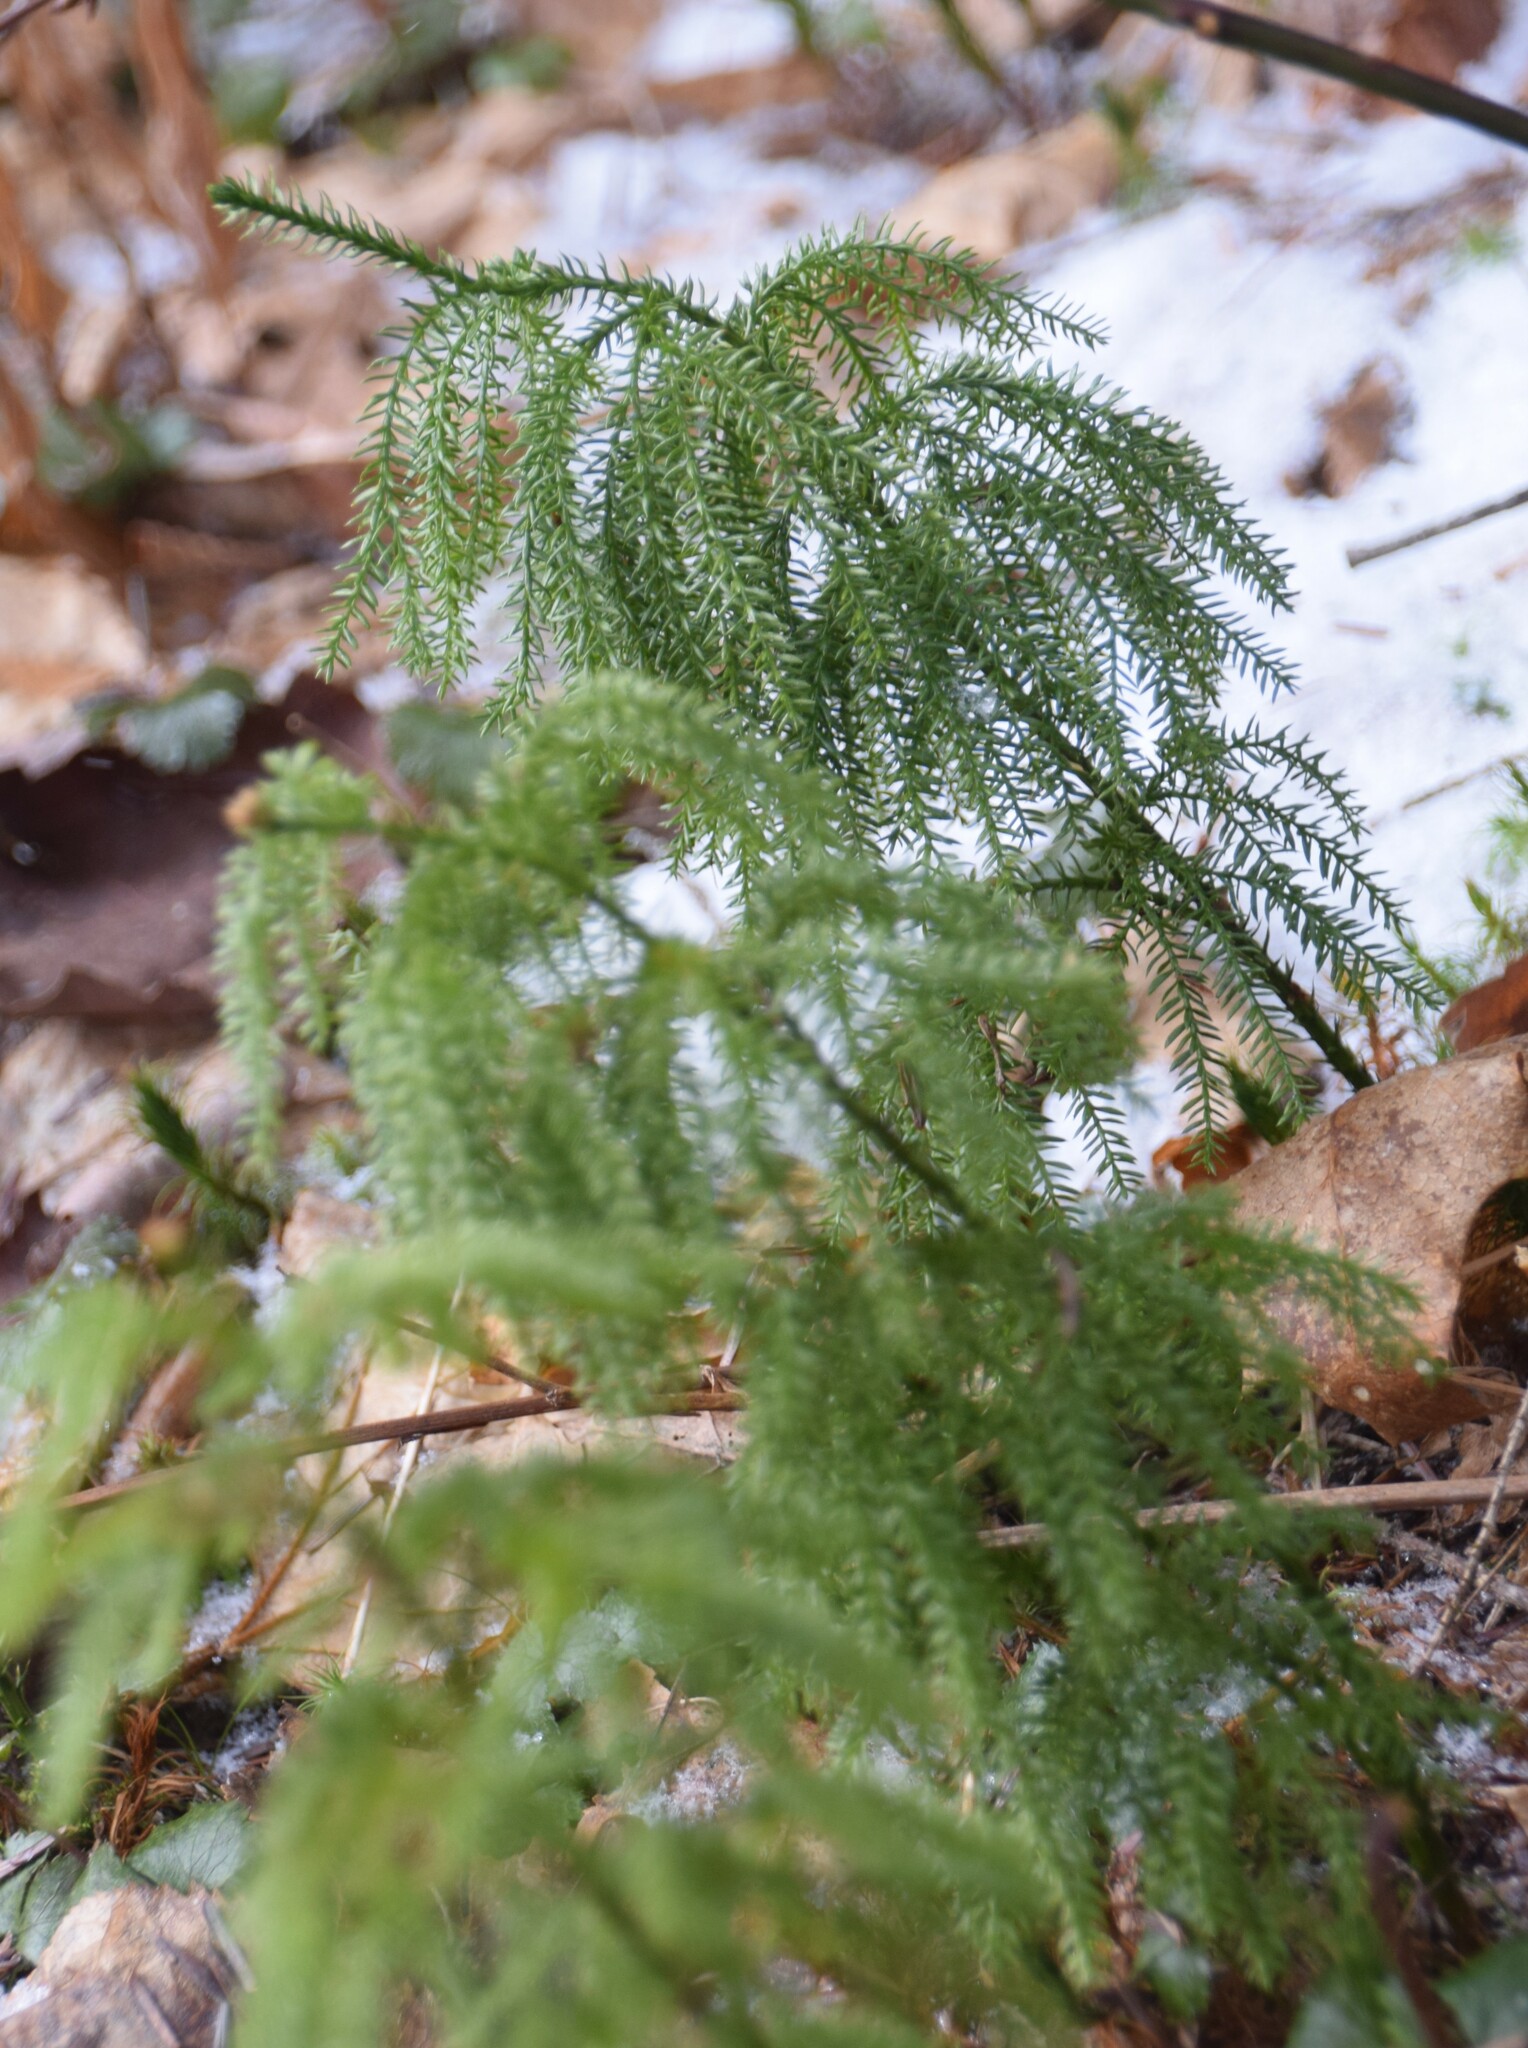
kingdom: Plantae
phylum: Tracheophyta
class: Lycopodiopsida
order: Lycopodiales
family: Lycopodiaceae
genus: Dendrolycopodium
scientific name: Dendrolycopodium dendroideum
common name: Northern tree-clubmoss
